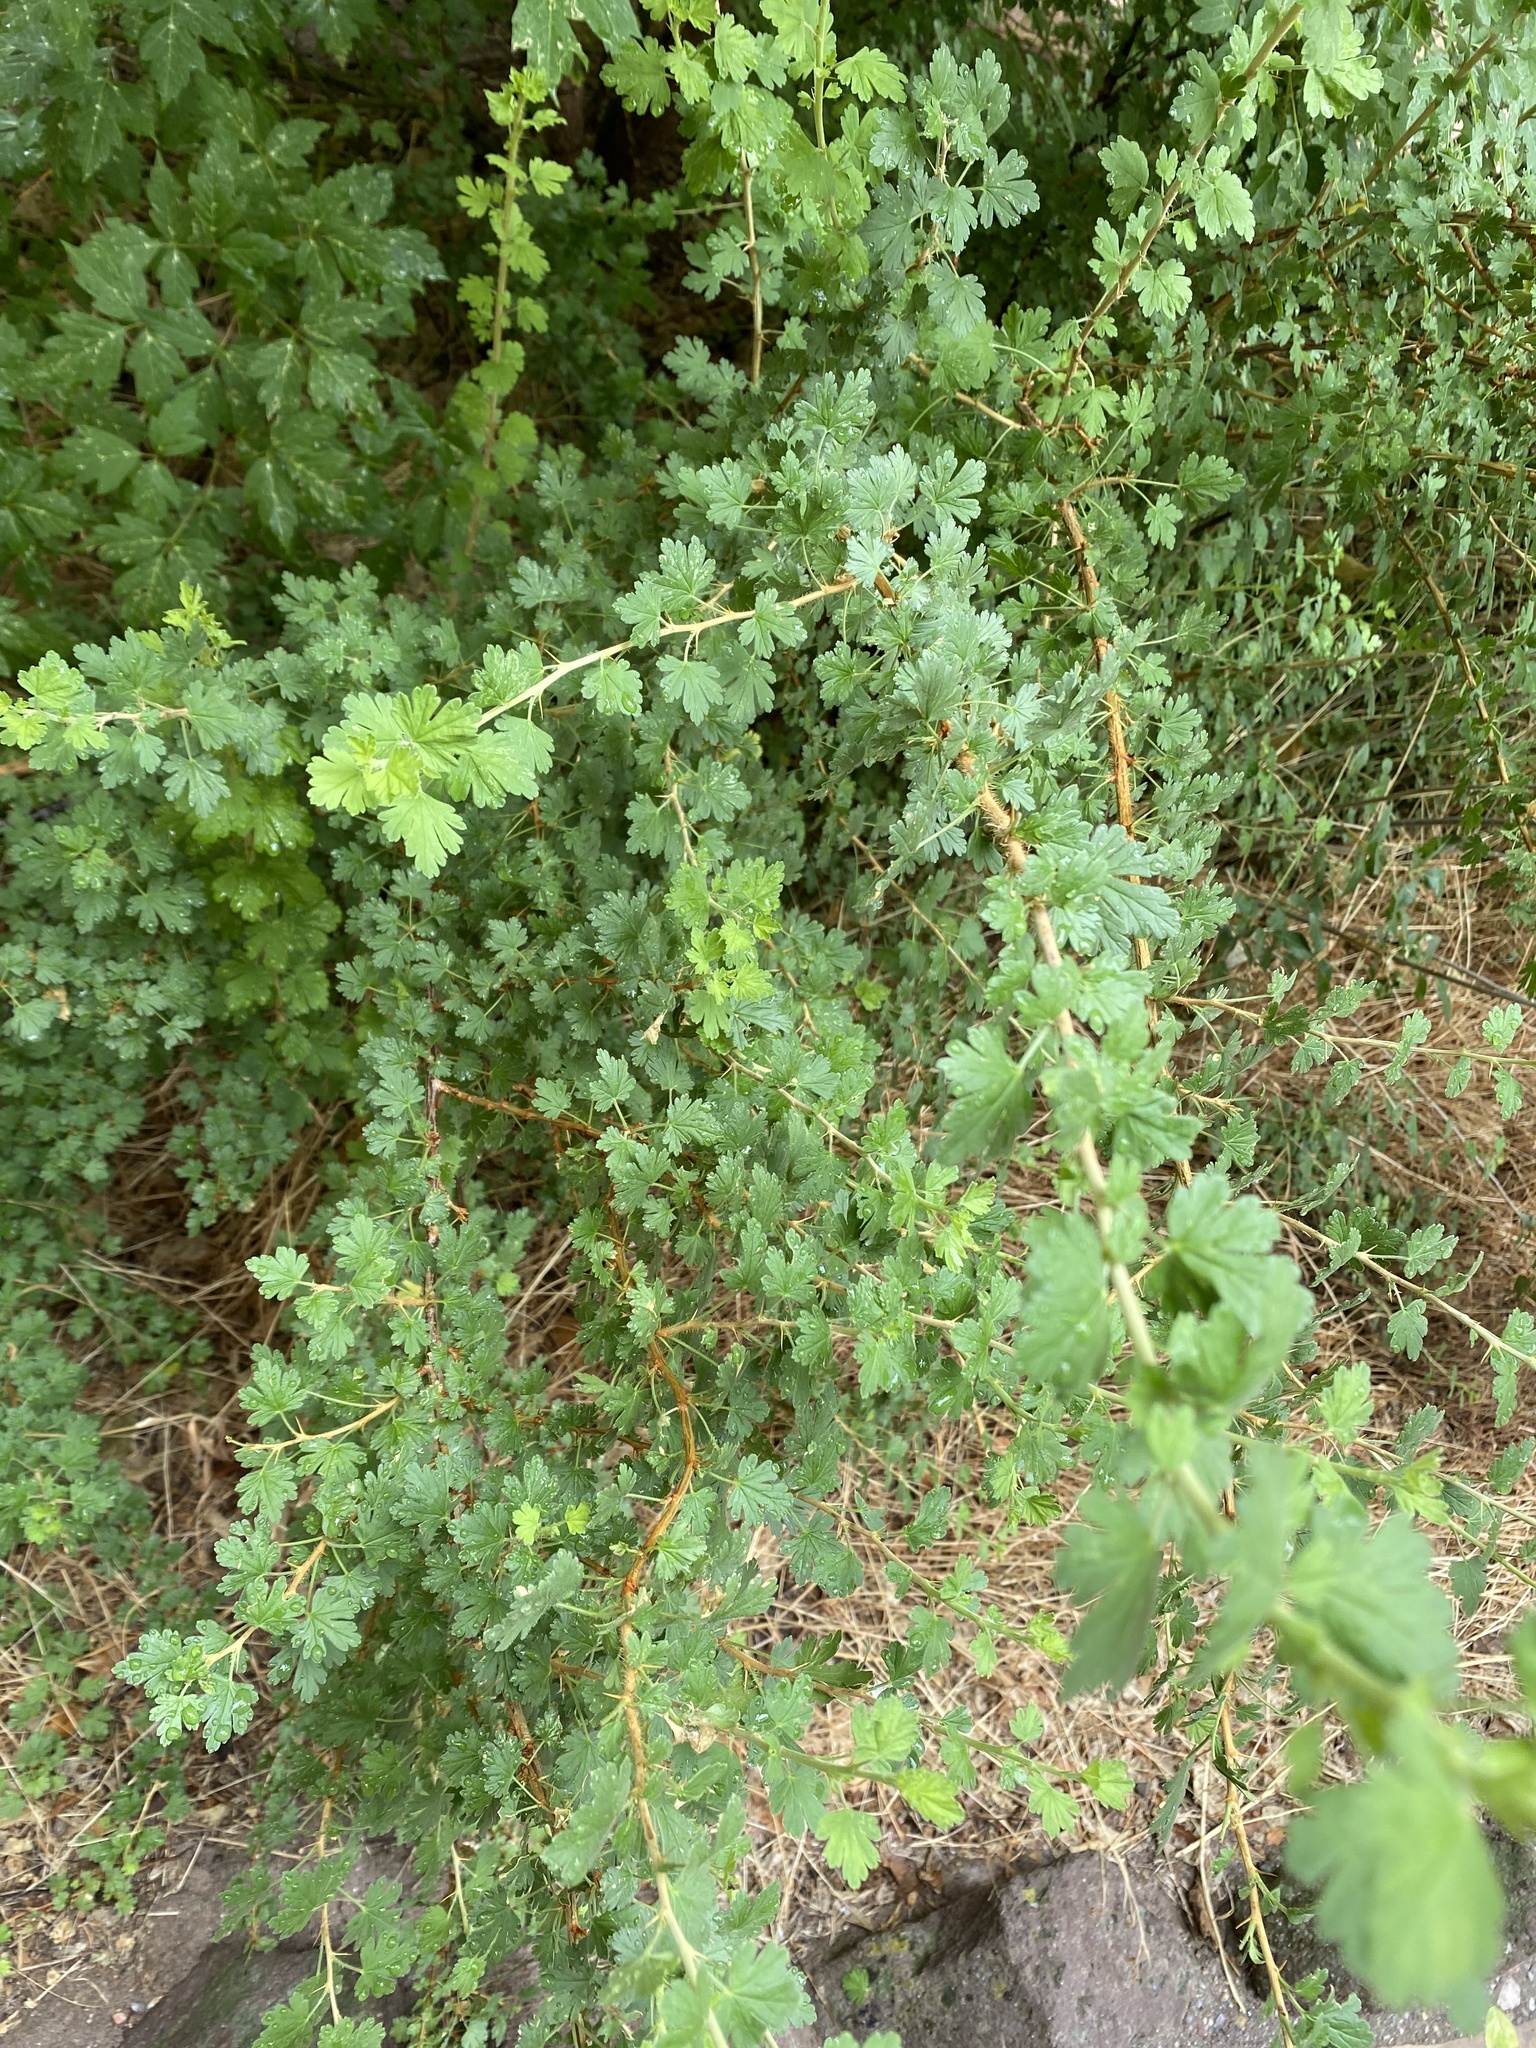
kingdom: Plantae
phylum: Tracheophyta
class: Magnoliopsida
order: Saxifragales
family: Grossulariaceae
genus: Ribes
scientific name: Ribes inerme
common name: White-stem gooseberry
